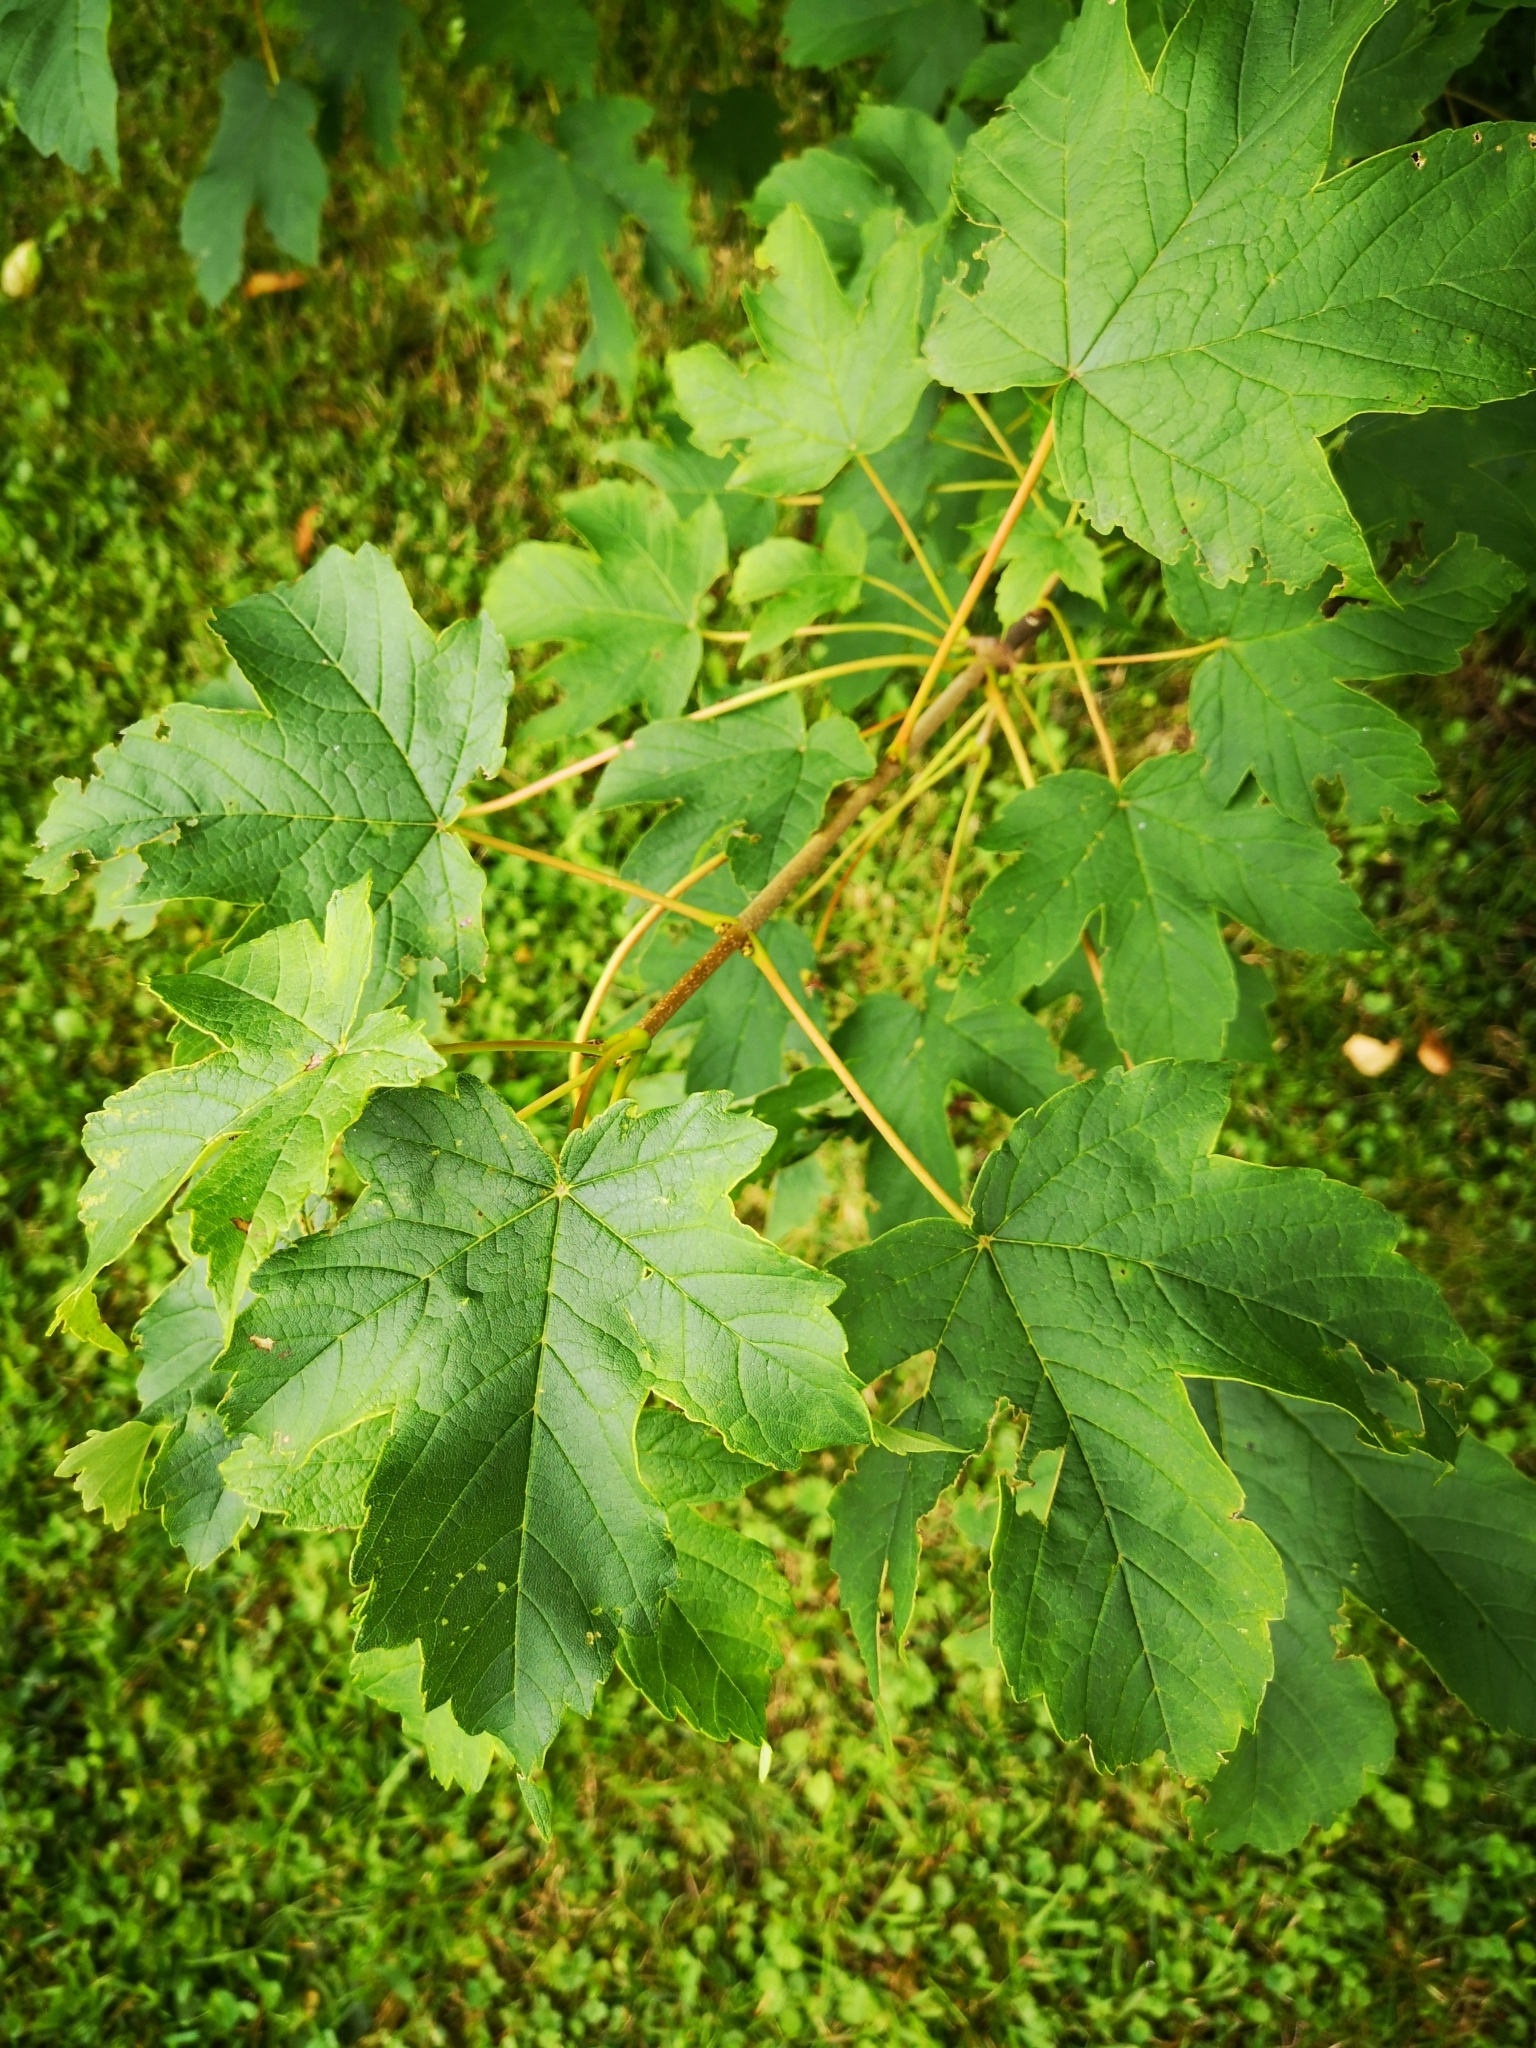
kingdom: Plantae
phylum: Tracheophyta
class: Magnoliopsida
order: Sapindales
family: Sapindaceae
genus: Acer
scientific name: Acer pseudoplatanus
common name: Sycamore
